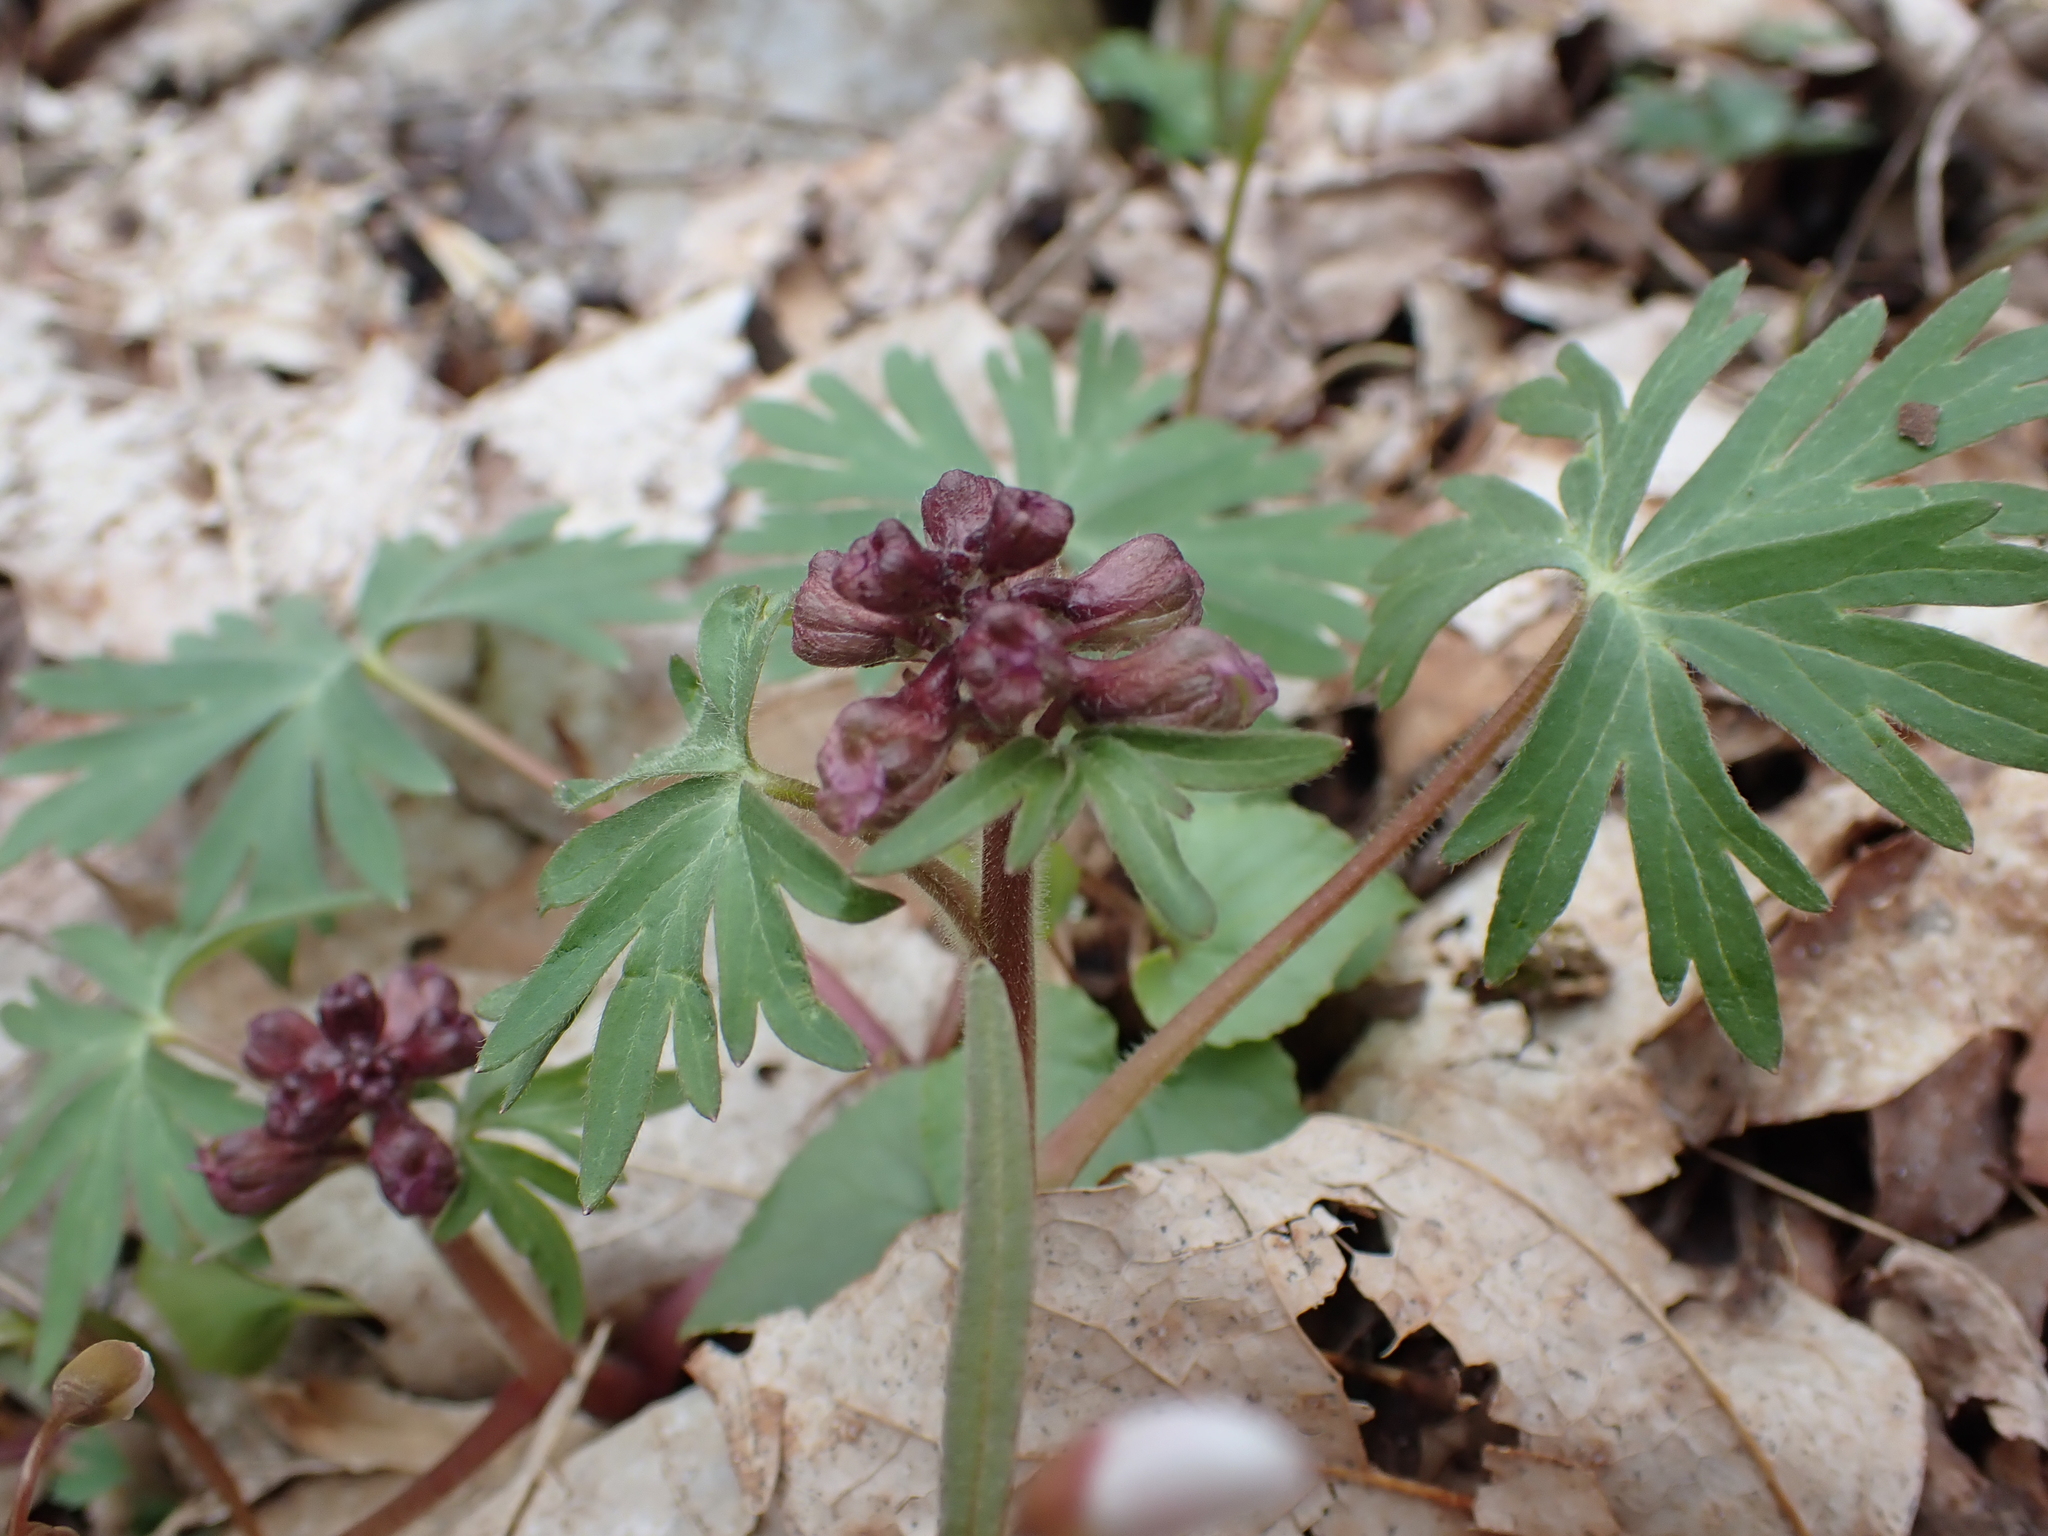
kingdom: Plantae
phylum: Tracheophyta
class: Magnoliopsida
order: Ranunculales
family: Ranunculaceae
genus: Delphinium
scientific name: Delphinium tricorne
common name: Dwarf larkspur
